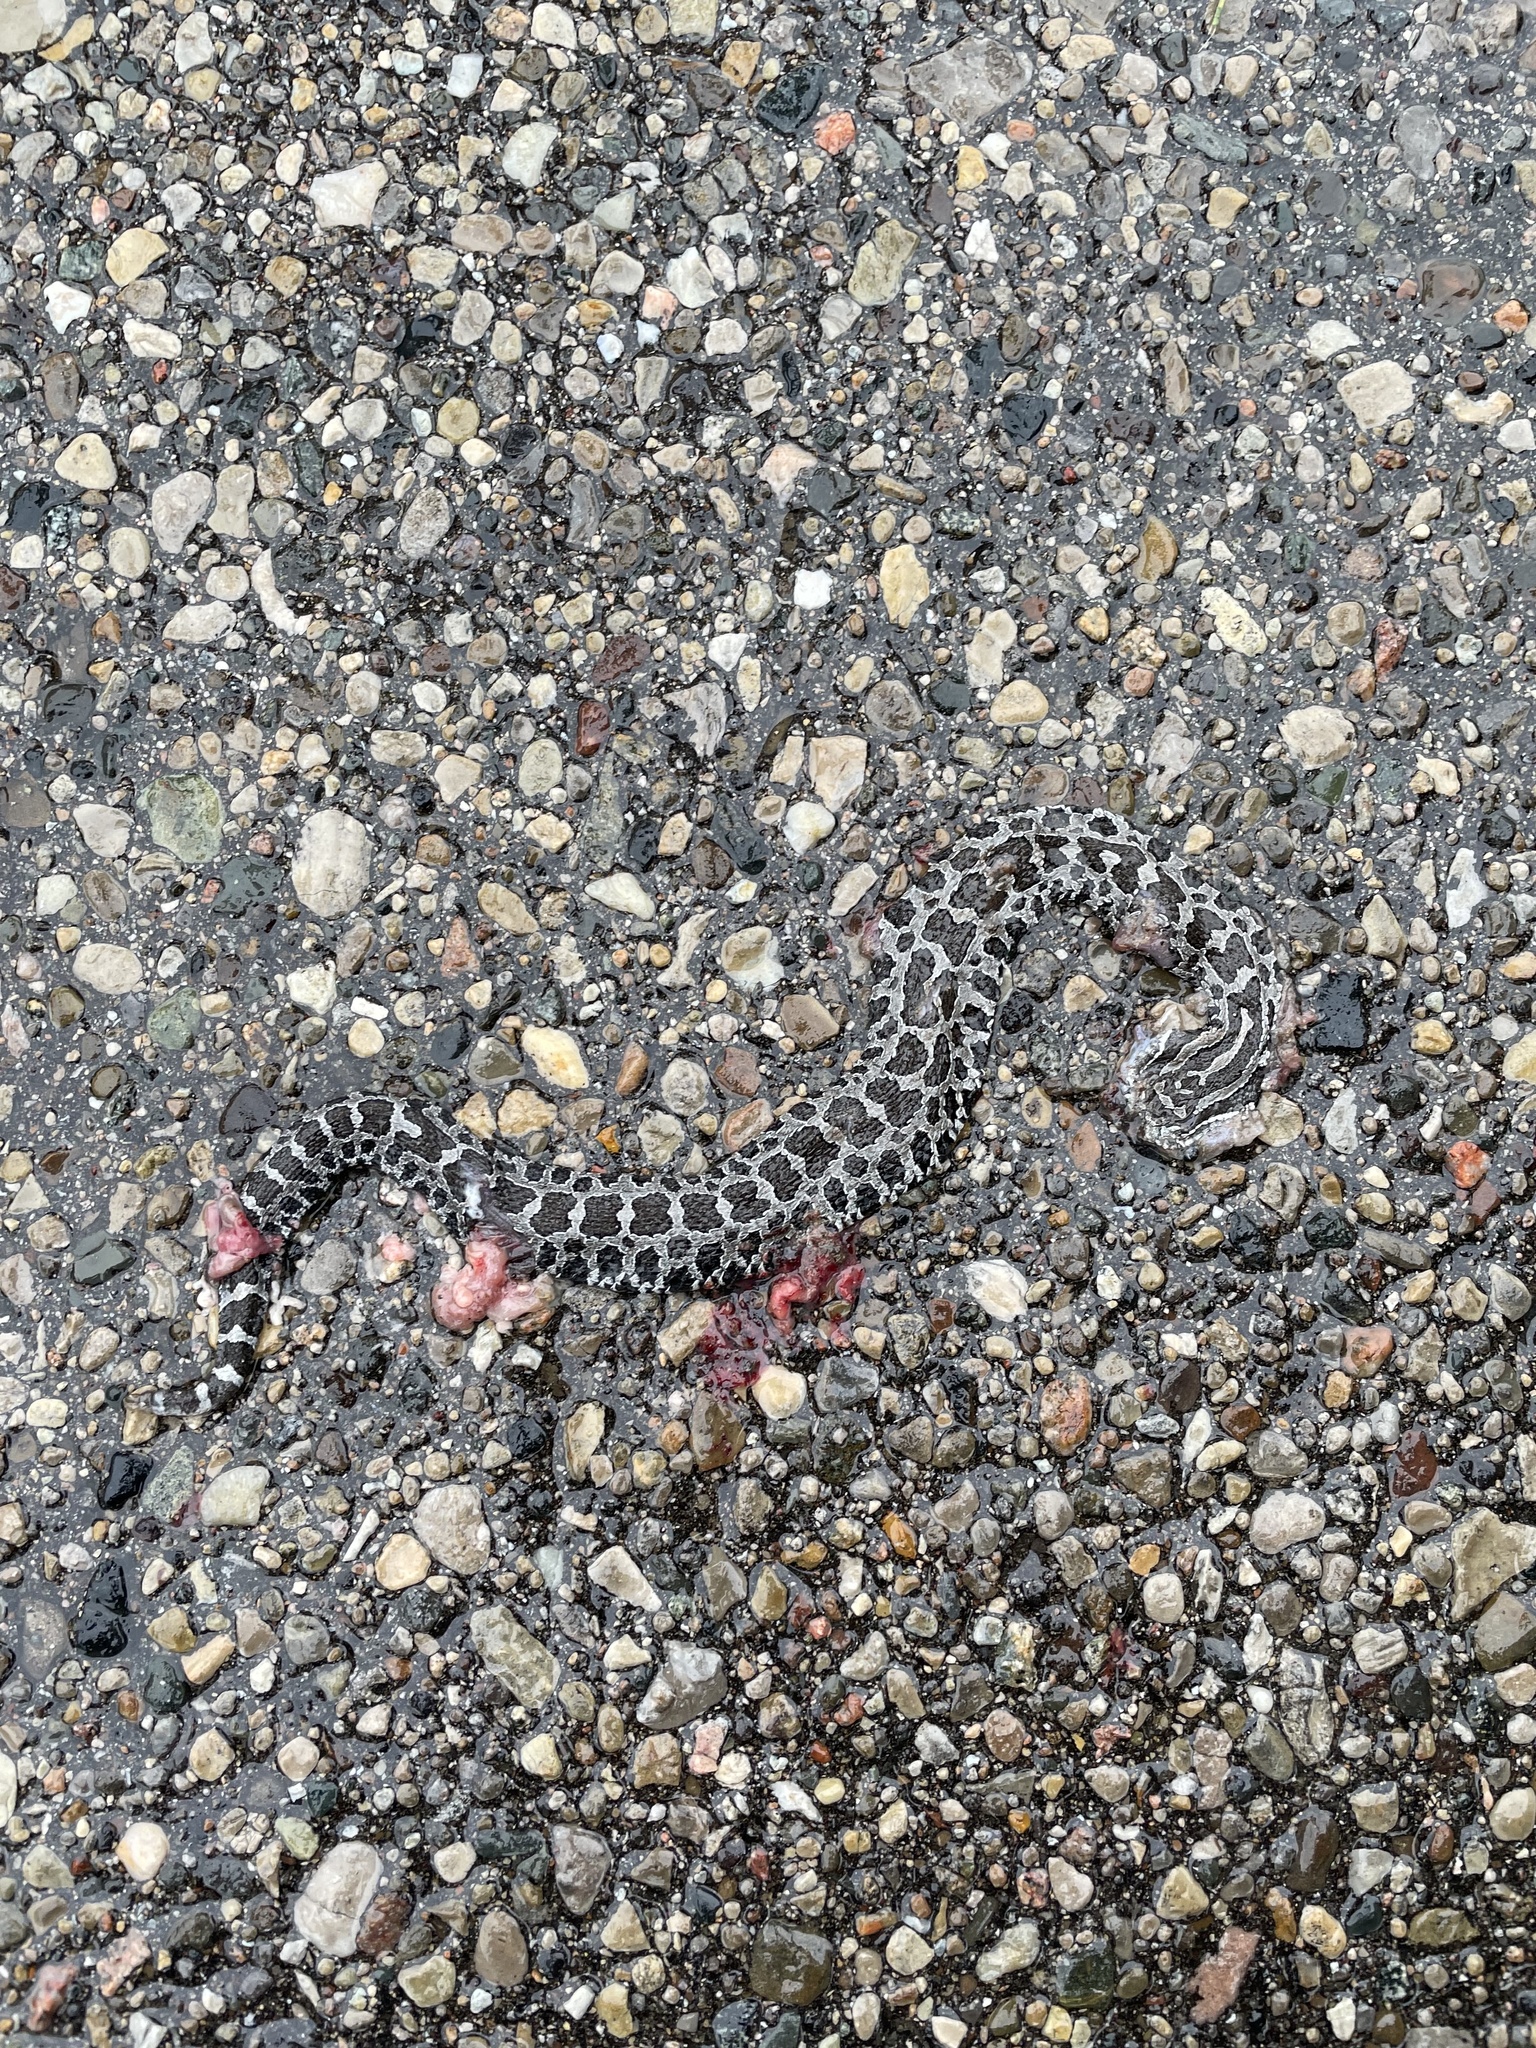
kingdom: Animalia
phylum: Chordata
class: Squamata
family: Viperidae
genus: Sistrurus
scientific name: Sistrurus catenatus
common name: Massasauga
